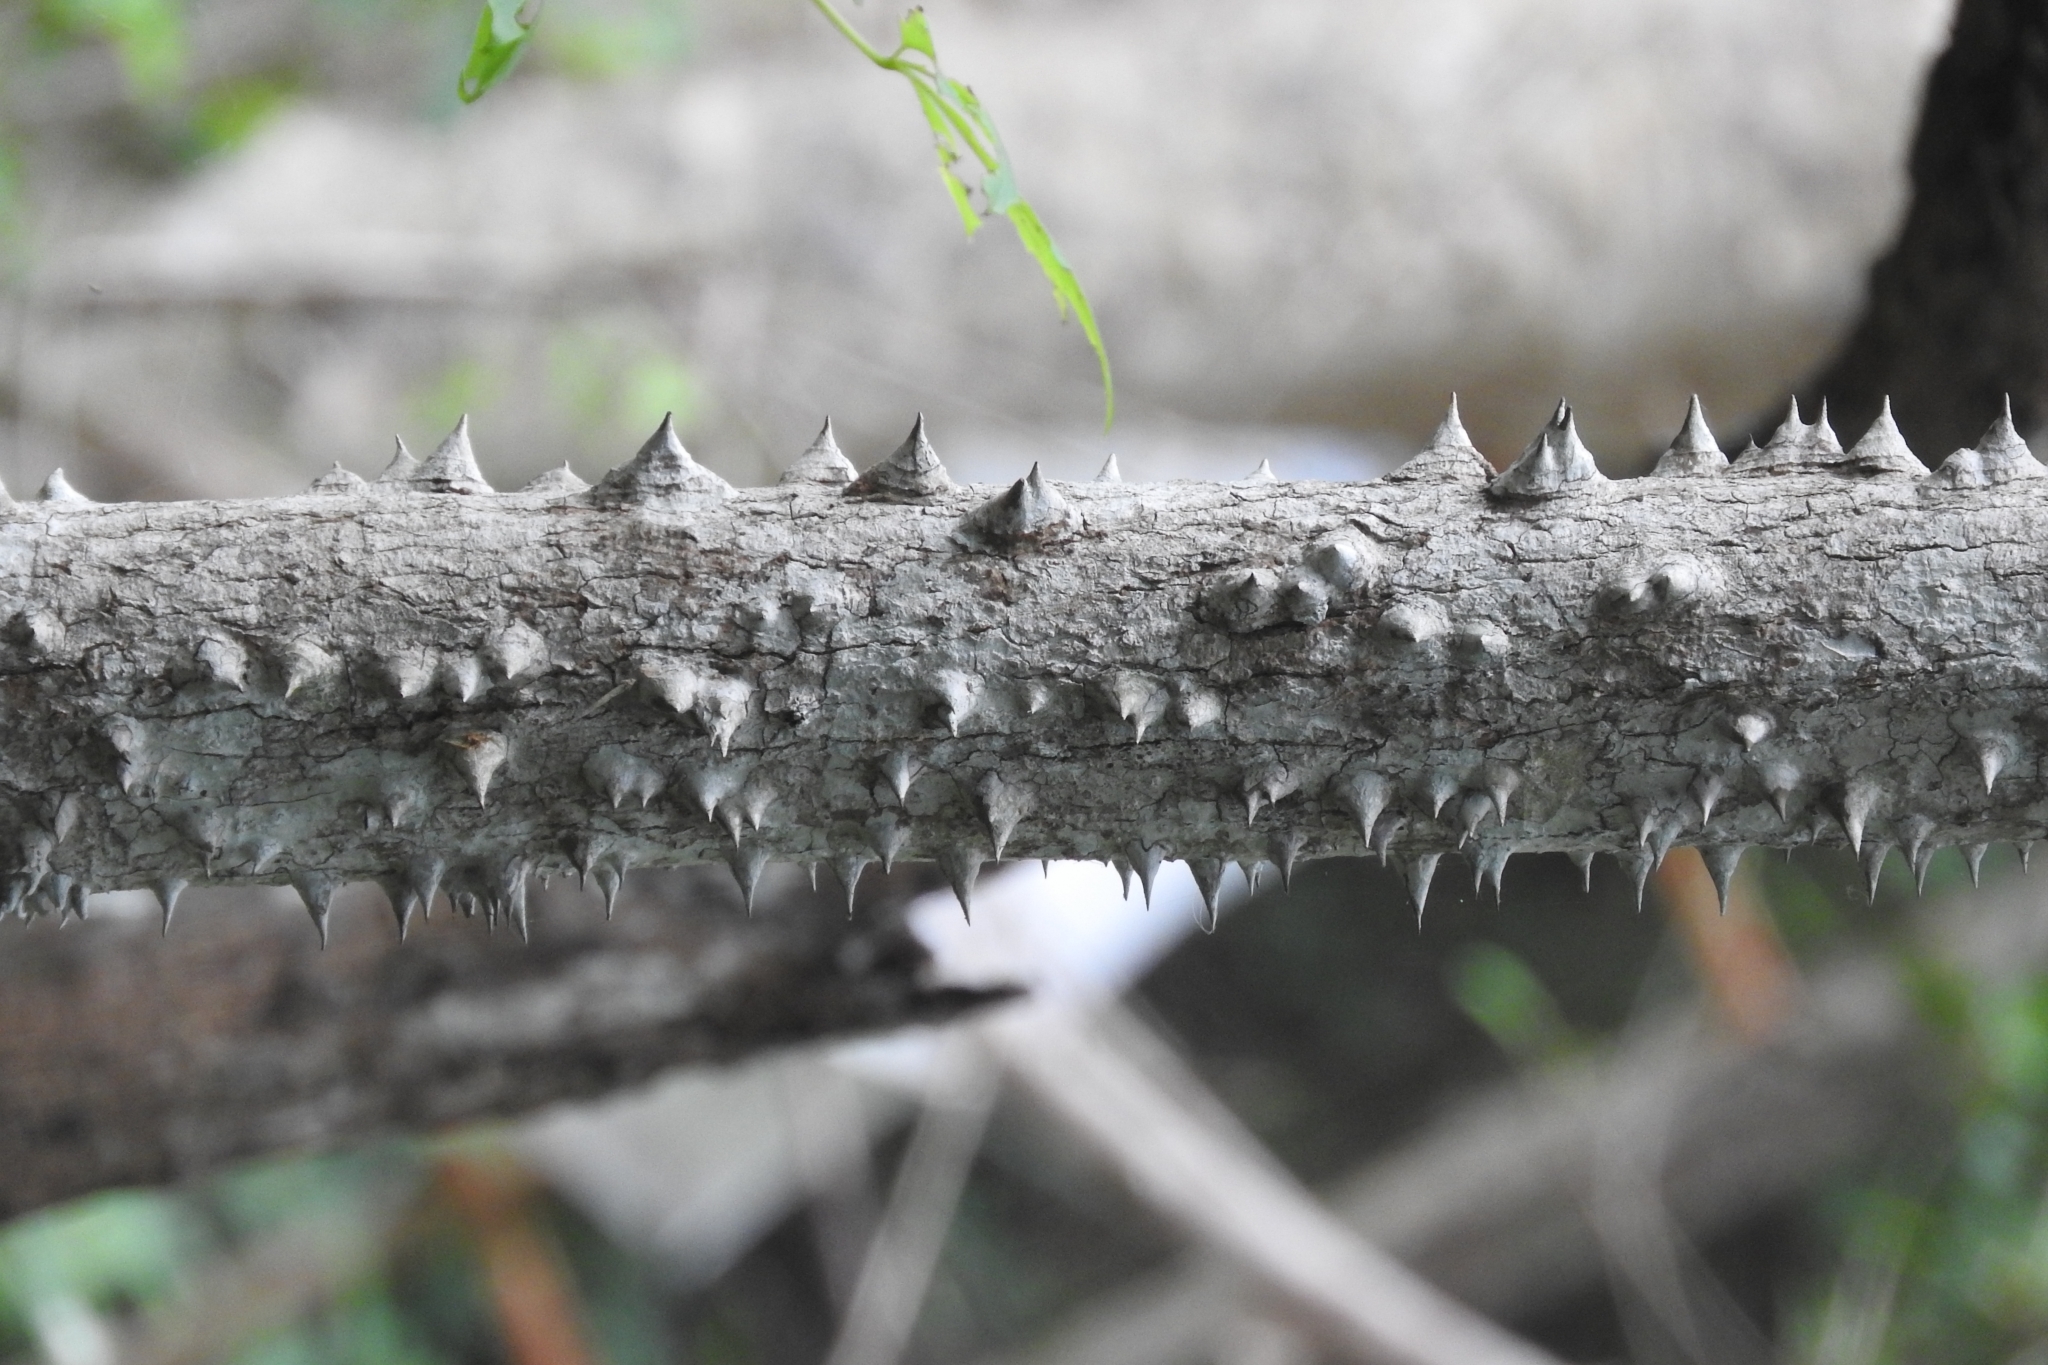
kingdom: Plantae
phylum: Tracheophyta
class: Magnoliopsida
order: Malvales
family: Malvaceae
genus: Ceiba
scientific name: Ceiba aesculifolia
